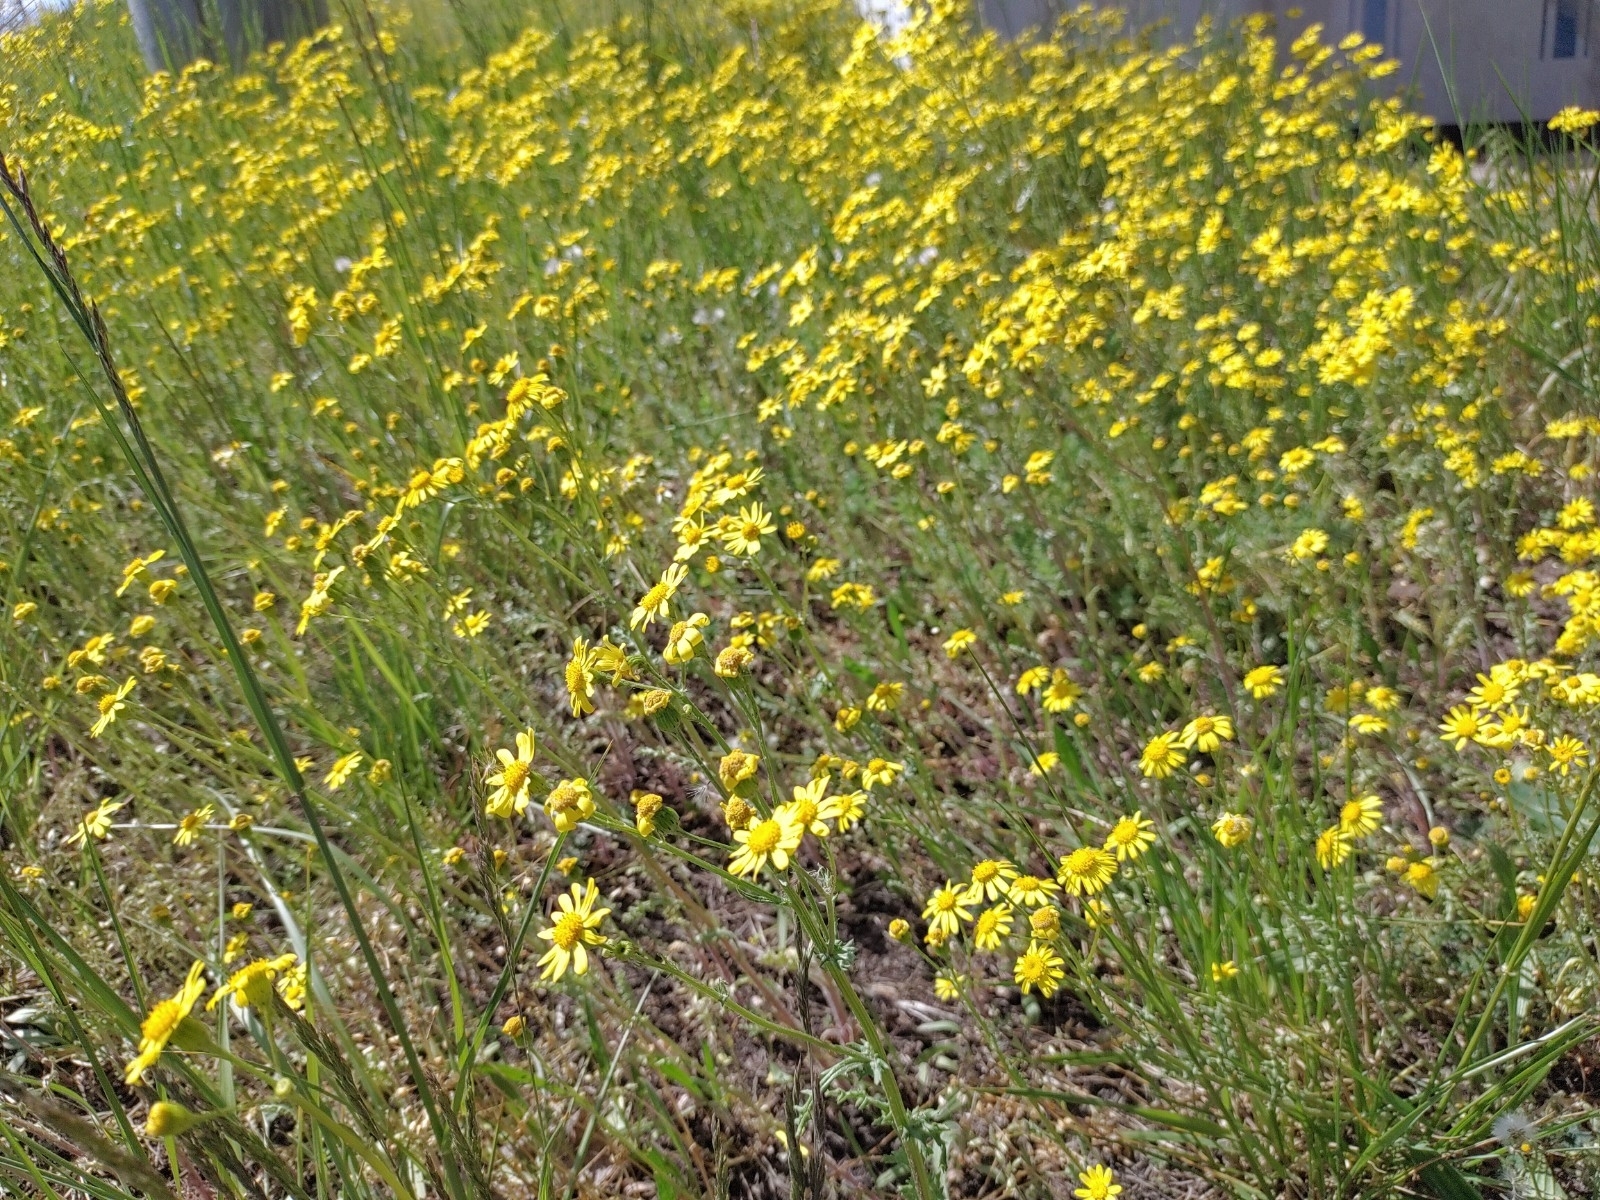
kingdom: Plantae
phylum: Tracheophyta
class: Magnoliopsida
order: Asterales
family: Asteraceae
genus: Senecio
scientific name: Senecio vernalis
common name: Eastern groundsel
